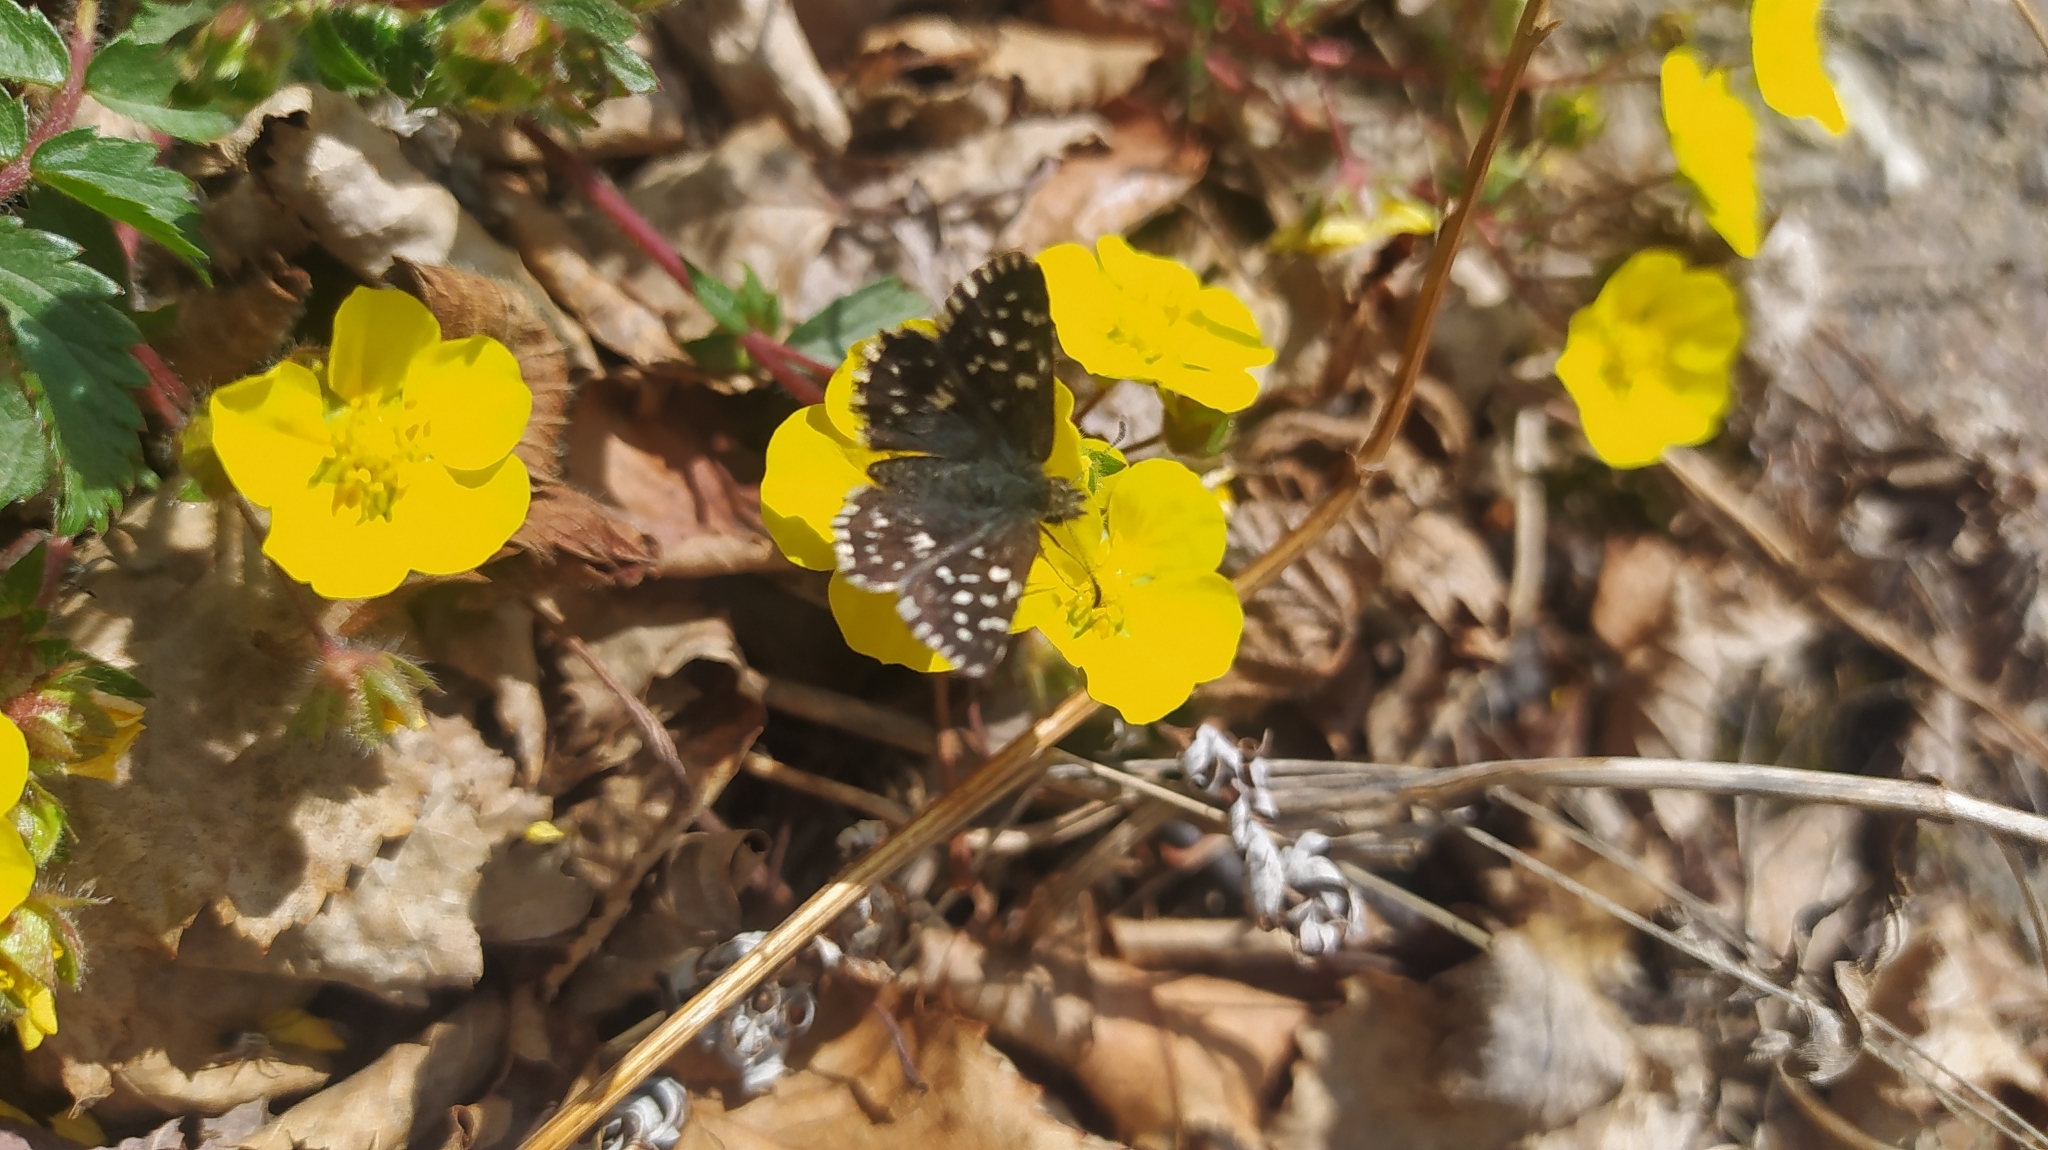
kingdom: Animalia
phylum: Arthropoda
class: Insecta
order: Lepidoptera
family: Hesperiidae
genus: Pyrgus
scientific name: Pyrgus malvae
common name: Grizzled skipper
